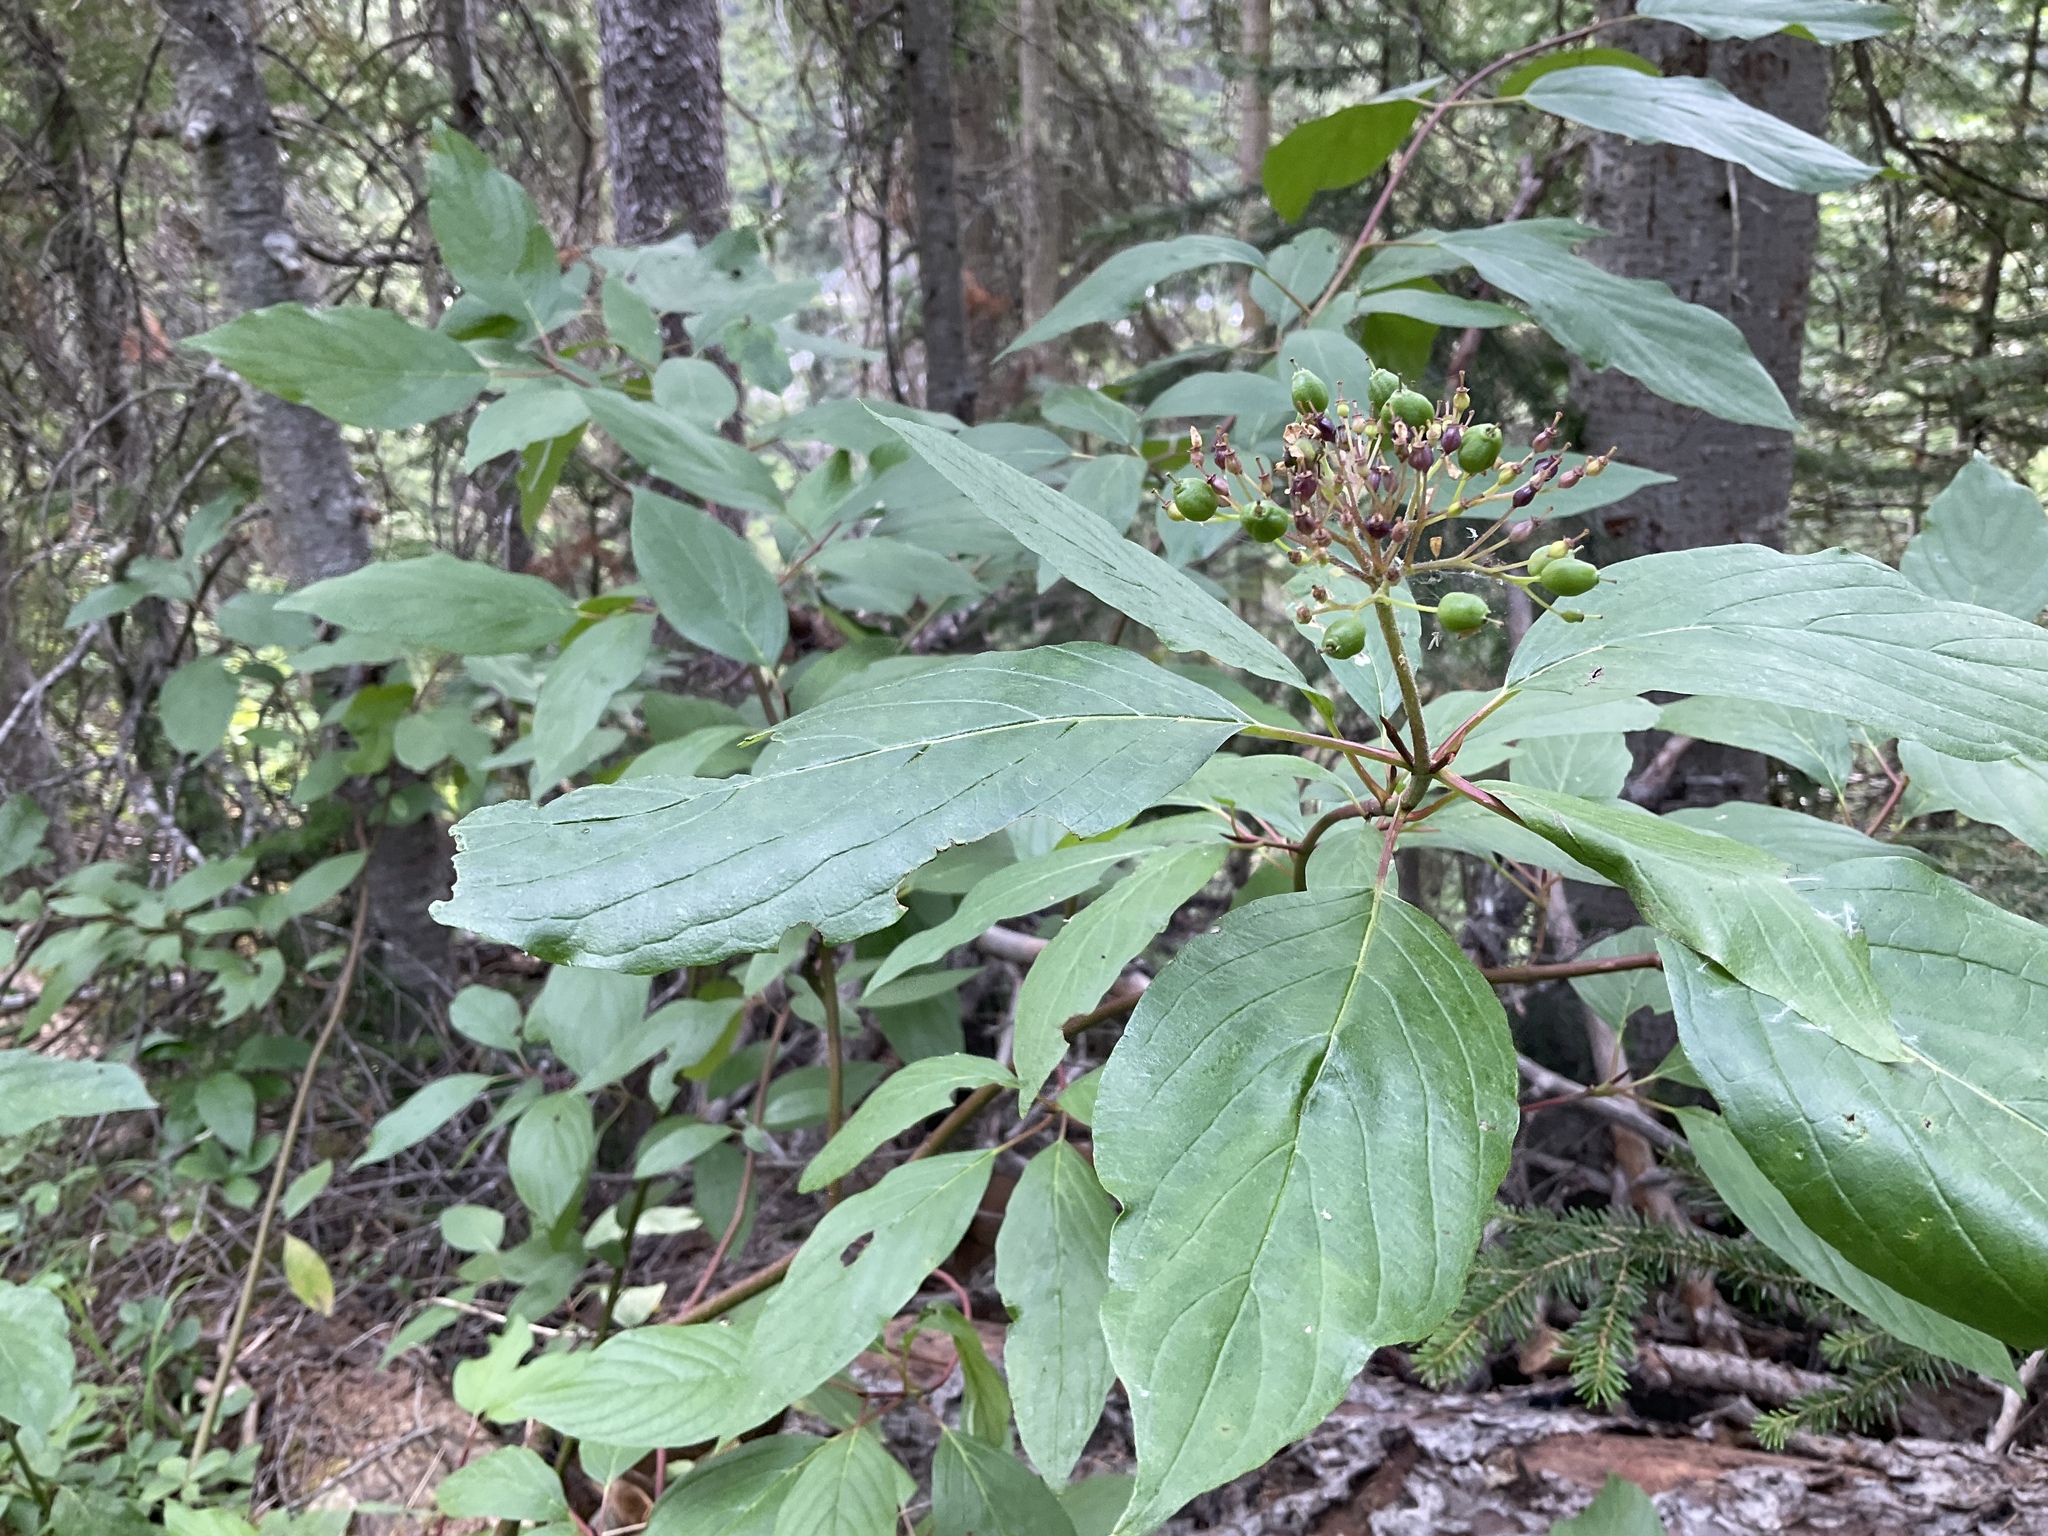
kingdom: Plantae
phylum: Tracheophyta
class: Magnoliopsida
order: Cornales
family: Cornaceae
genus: Cornus
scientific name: Cornus sericea
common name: Red-osier dogwood
